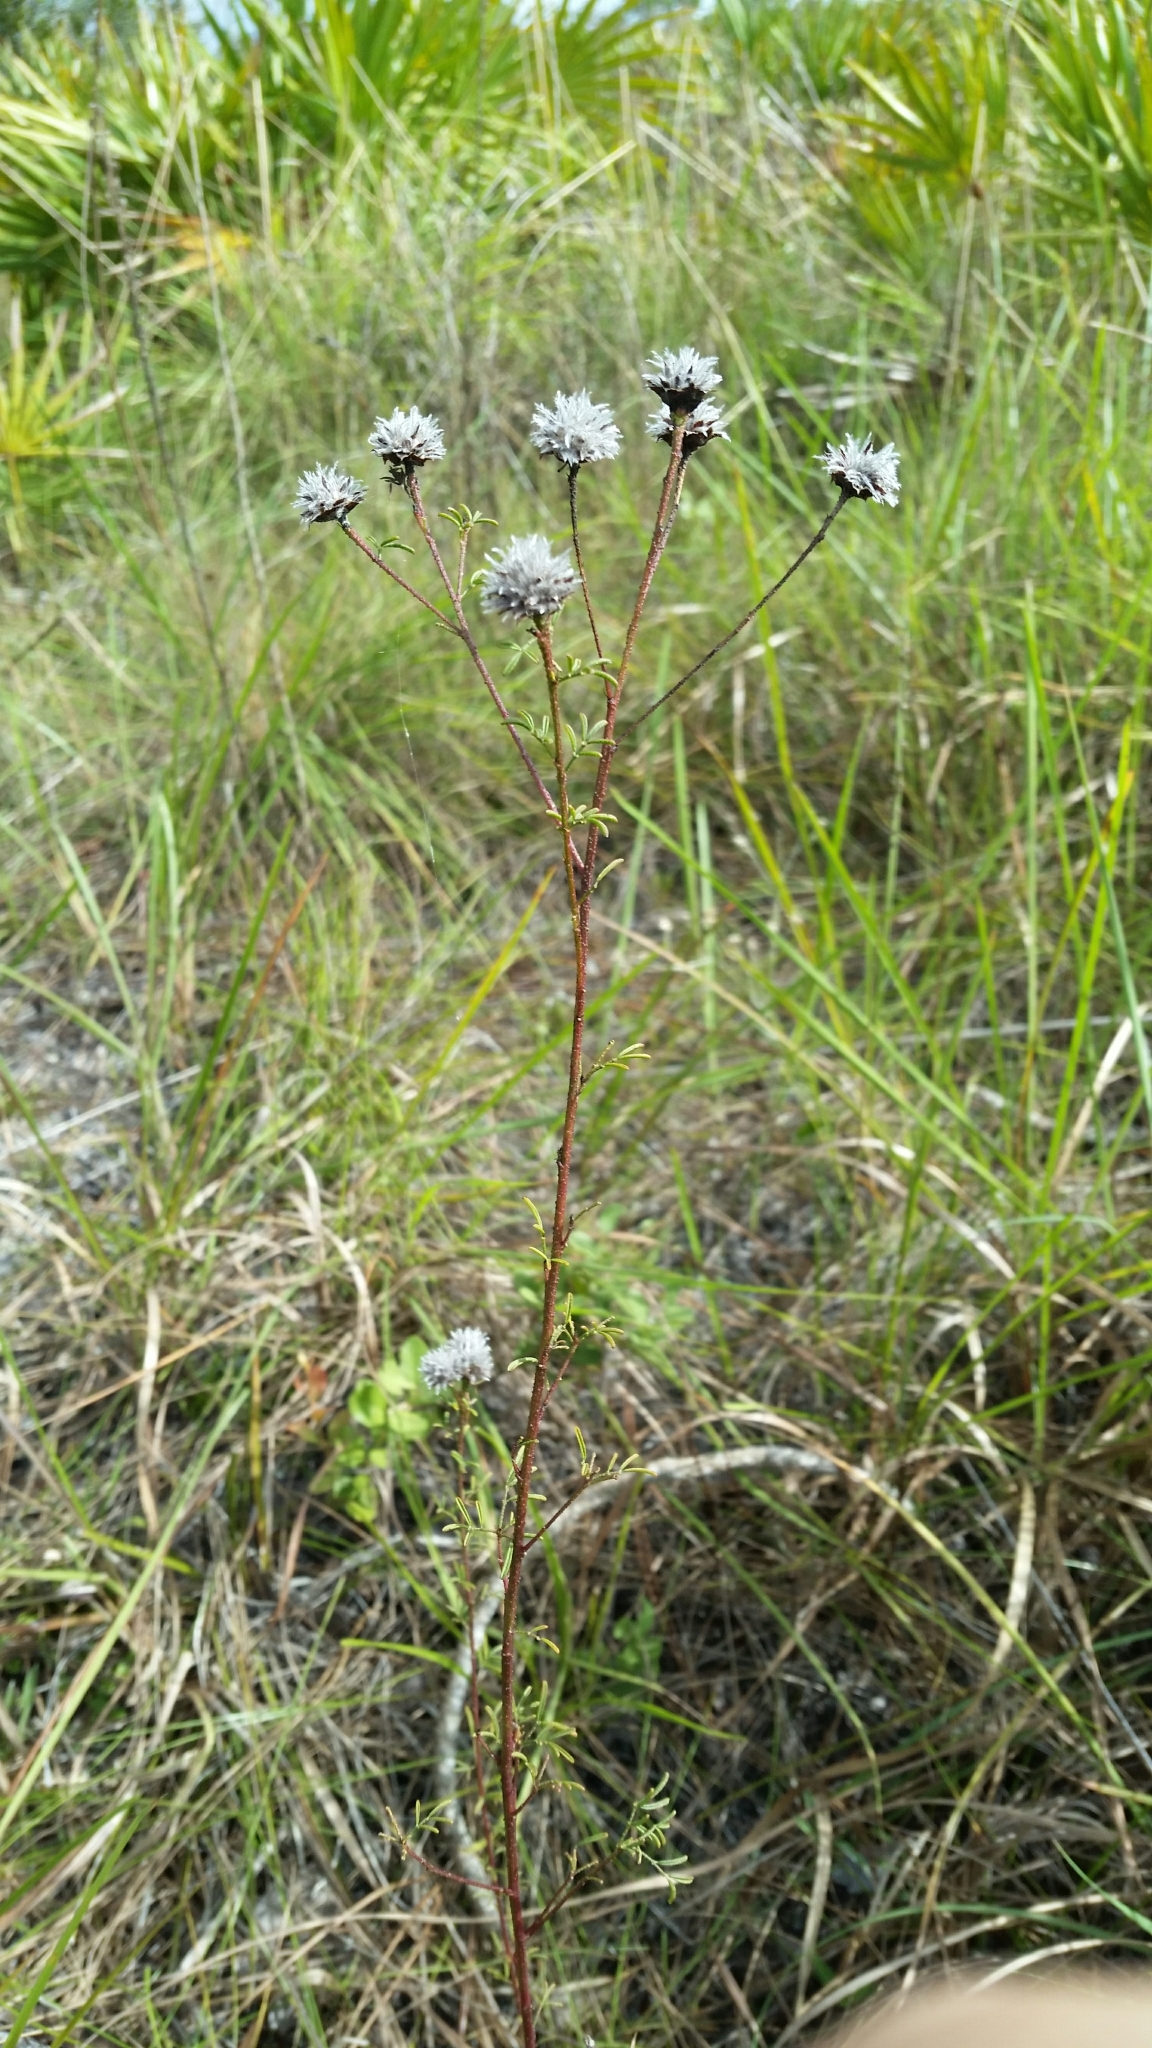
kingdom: Plantae
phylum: Tracheophyta
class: Magnoliopsida
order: Fabales
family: Fabaceae
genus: Dalea
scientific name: Dalea pinnata
